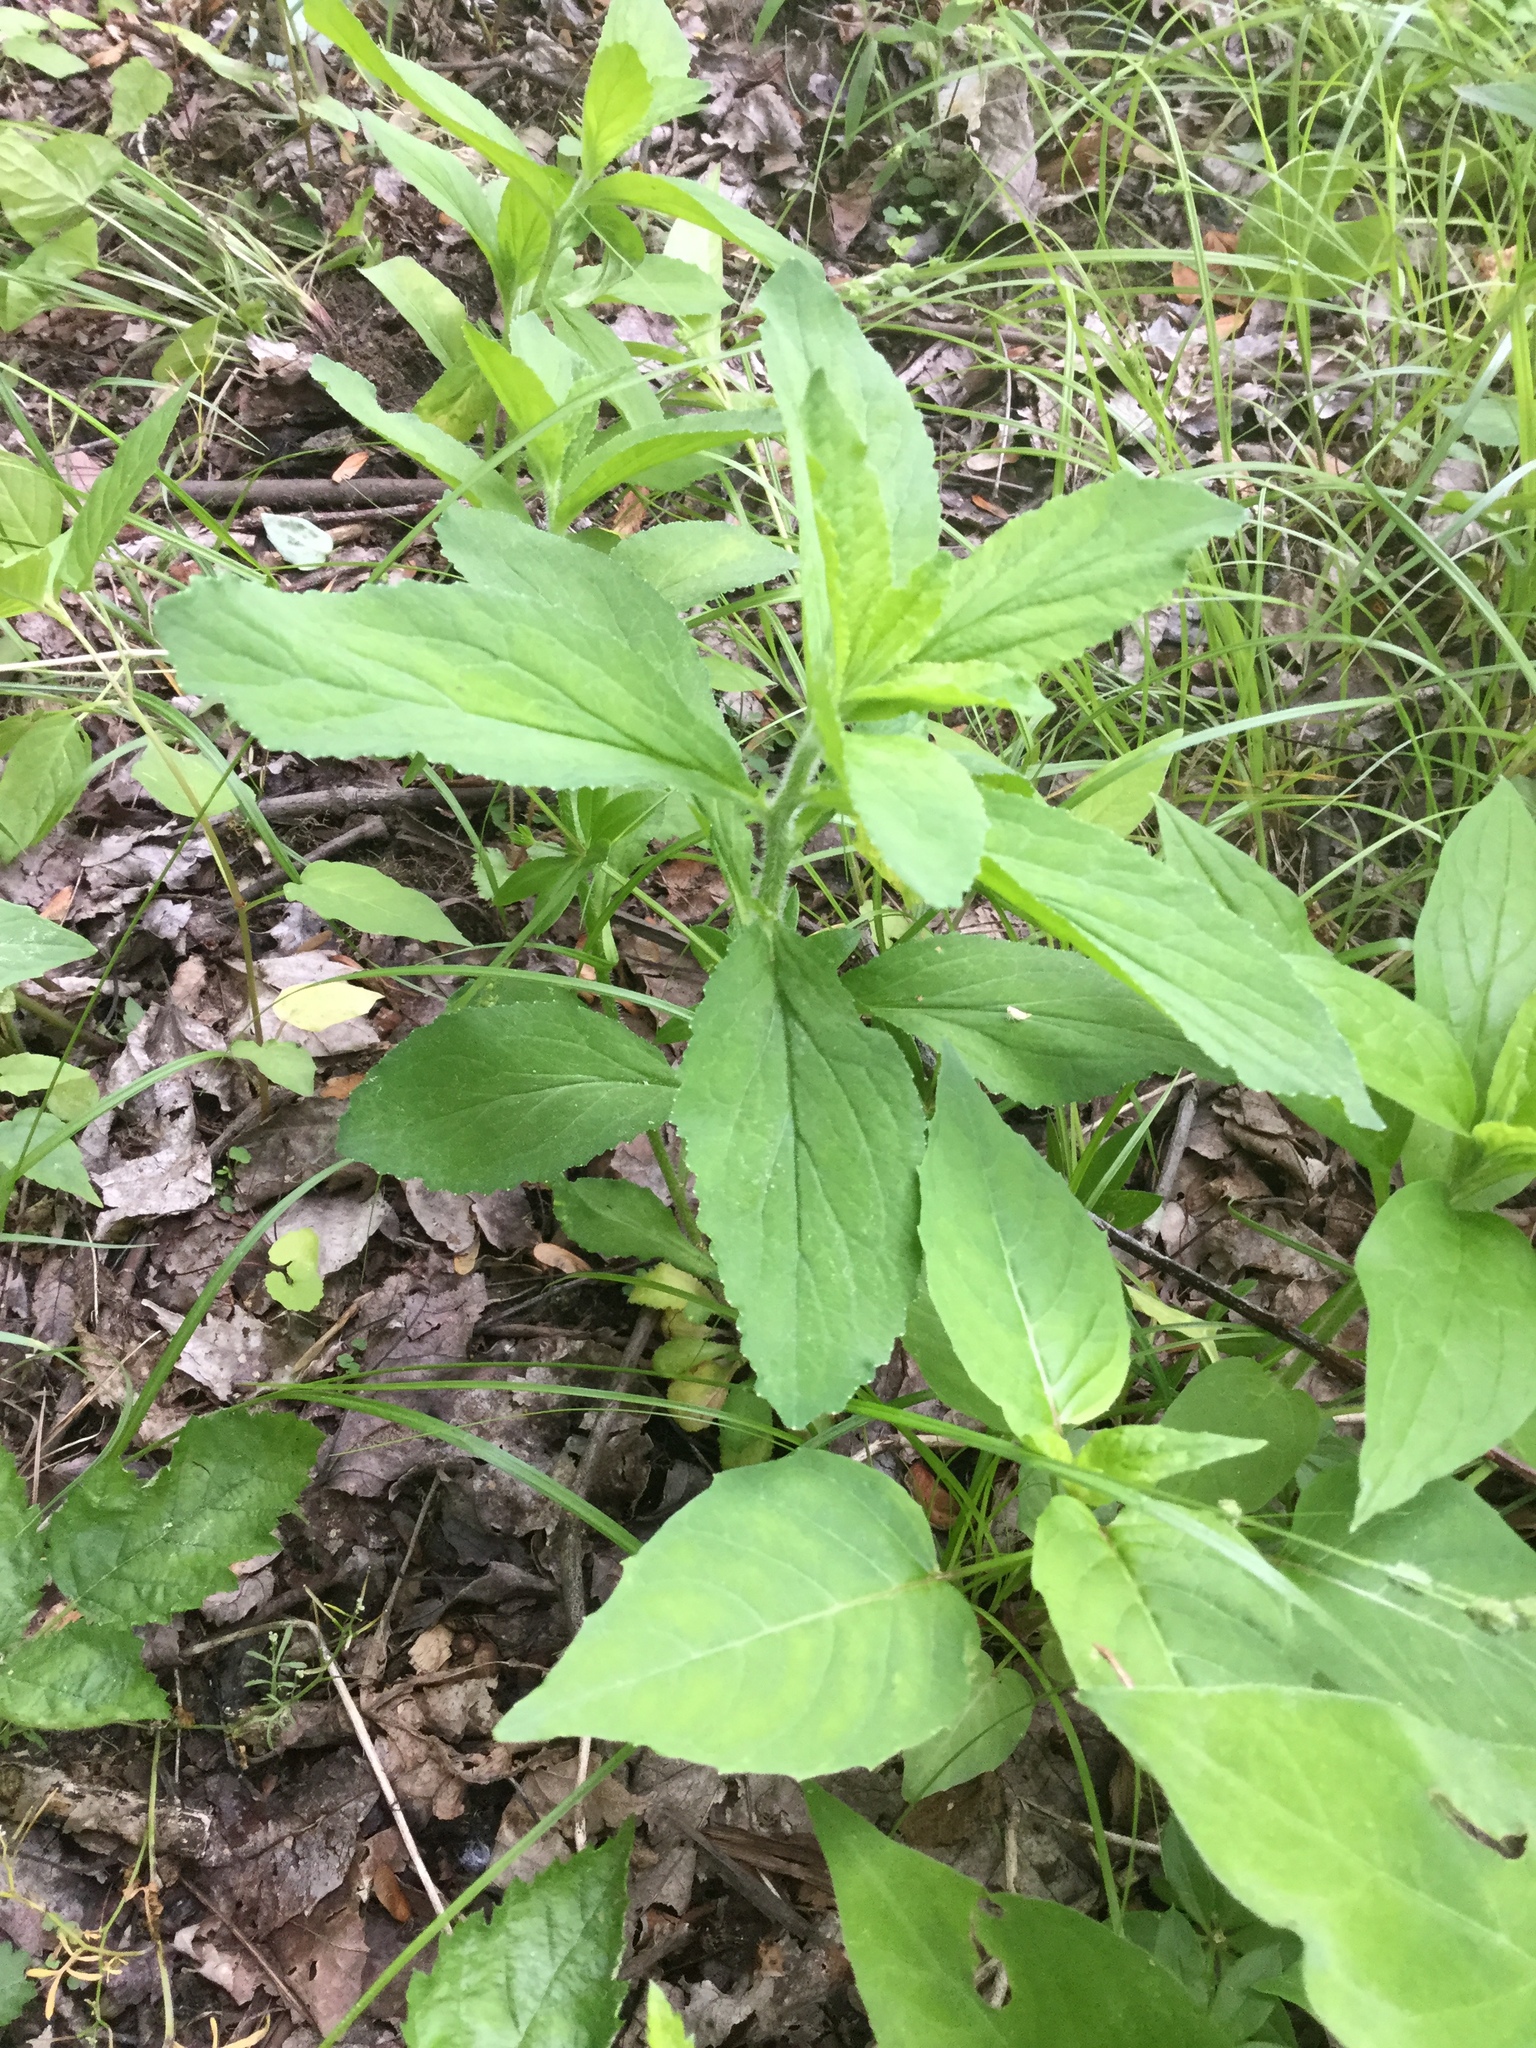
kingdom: Plantae
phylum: Tracheophyta
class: Magnoliopsida
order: Asterales
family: Campanulaceae
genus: Lobelia
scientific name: Lobelia siphilitica
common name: Great lobelia
